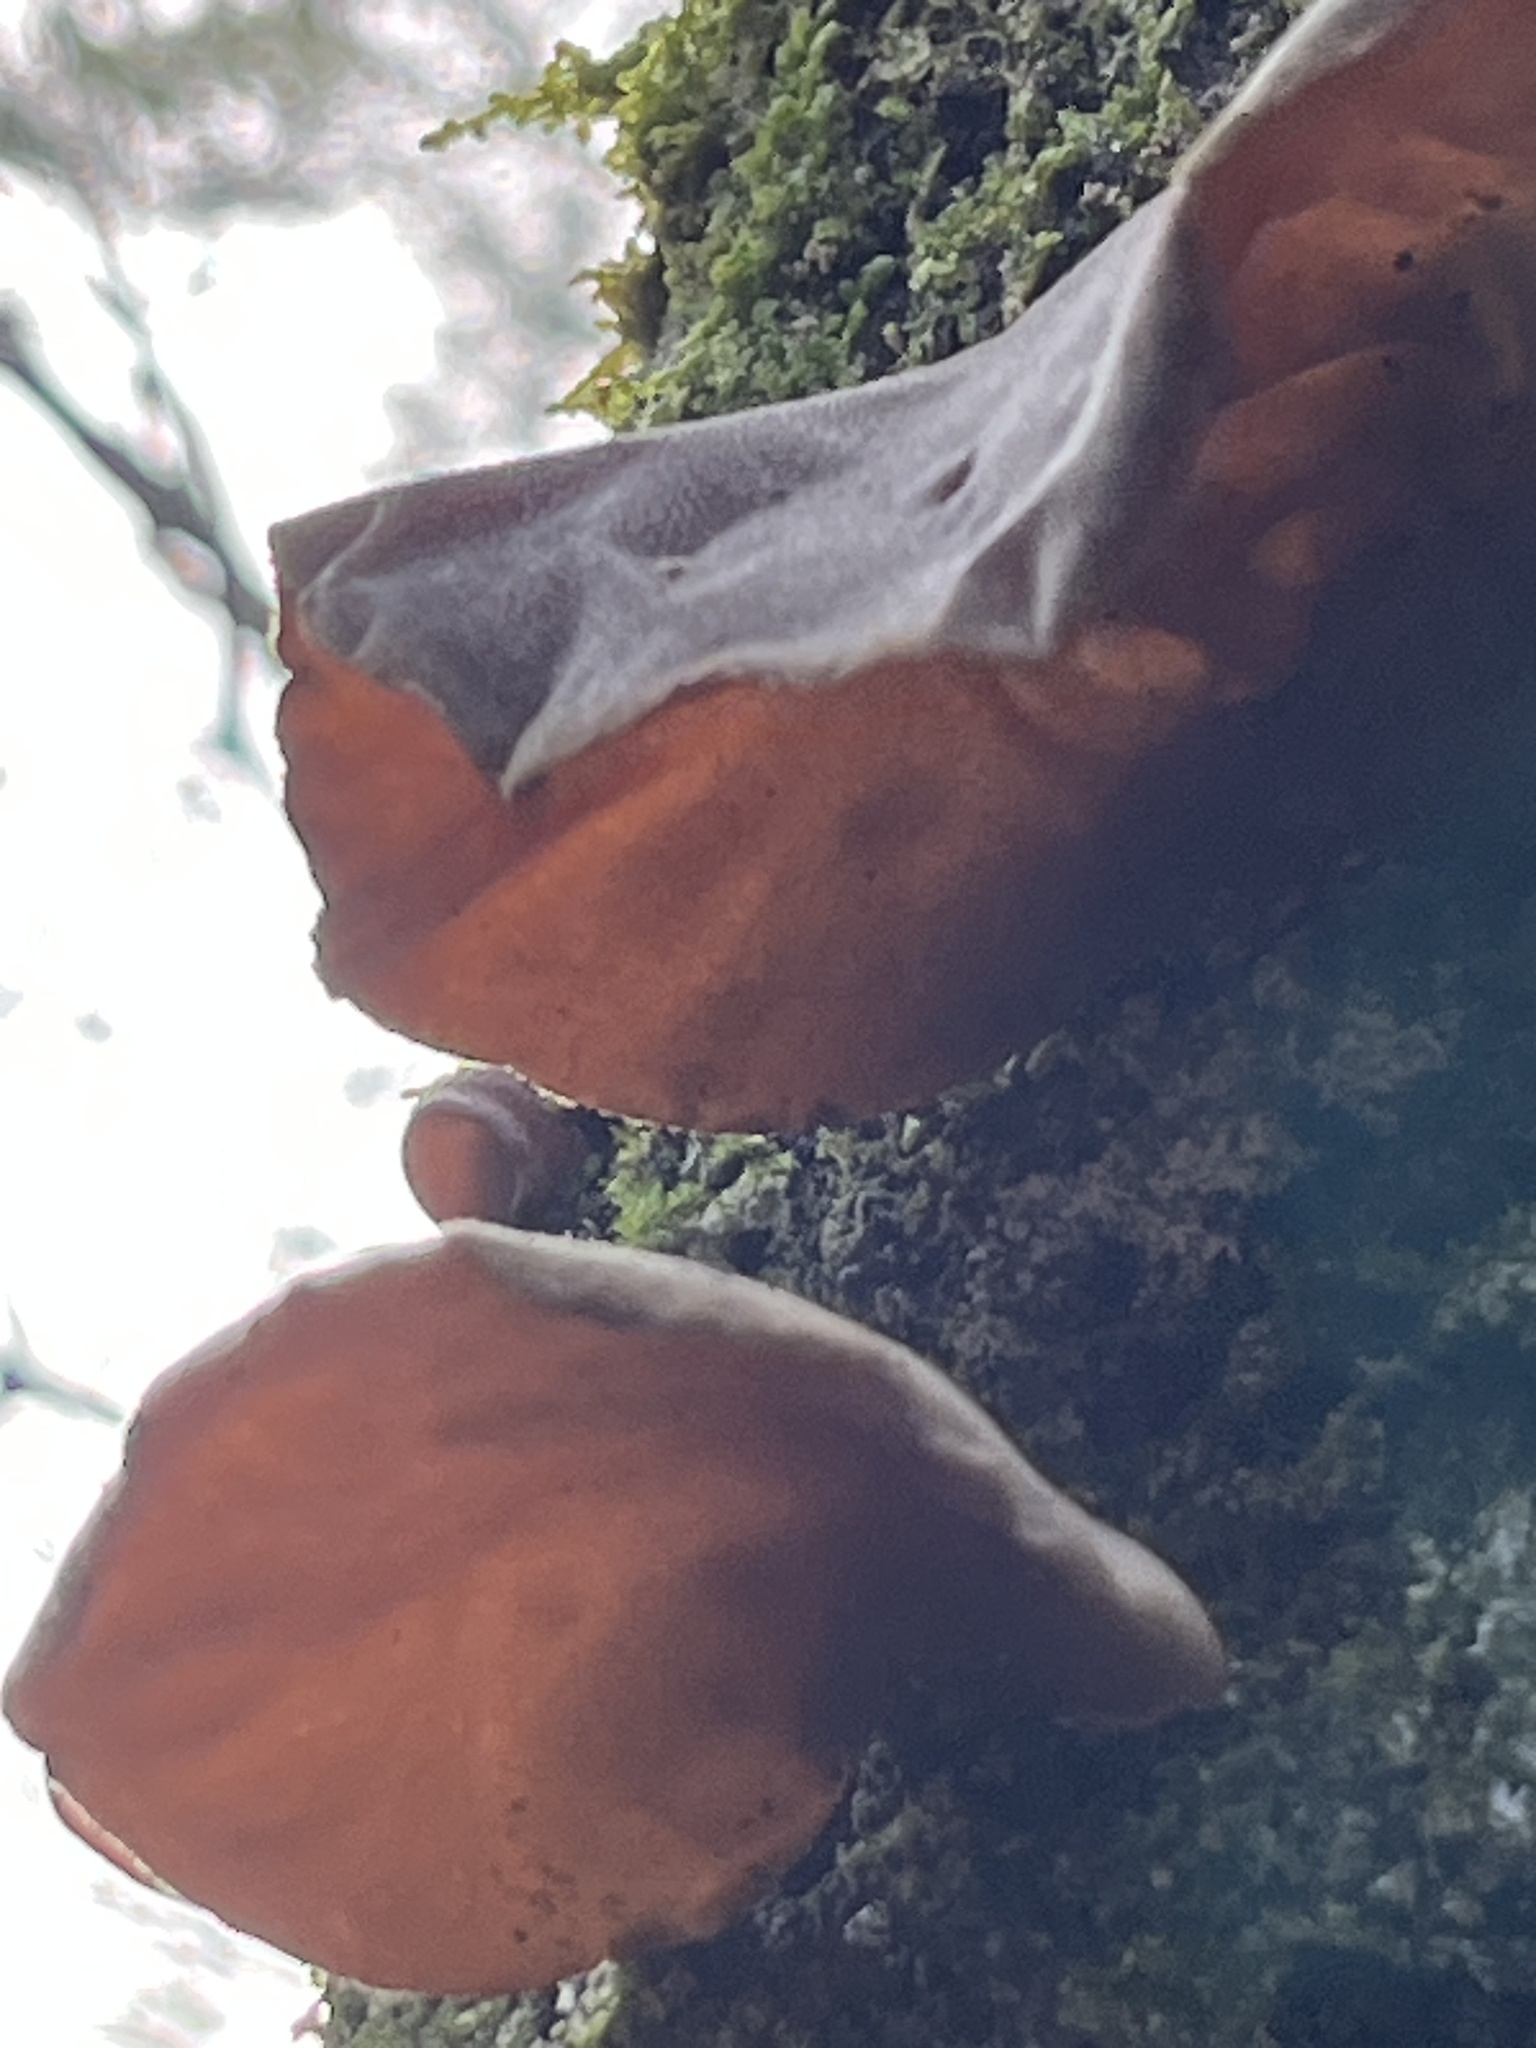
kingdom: Fungi
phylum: Basidiomycota
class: Agaricomycetes
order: Auriculariales
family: Auriculariaceae
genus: Auricularia
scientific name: Auricularia cornea
